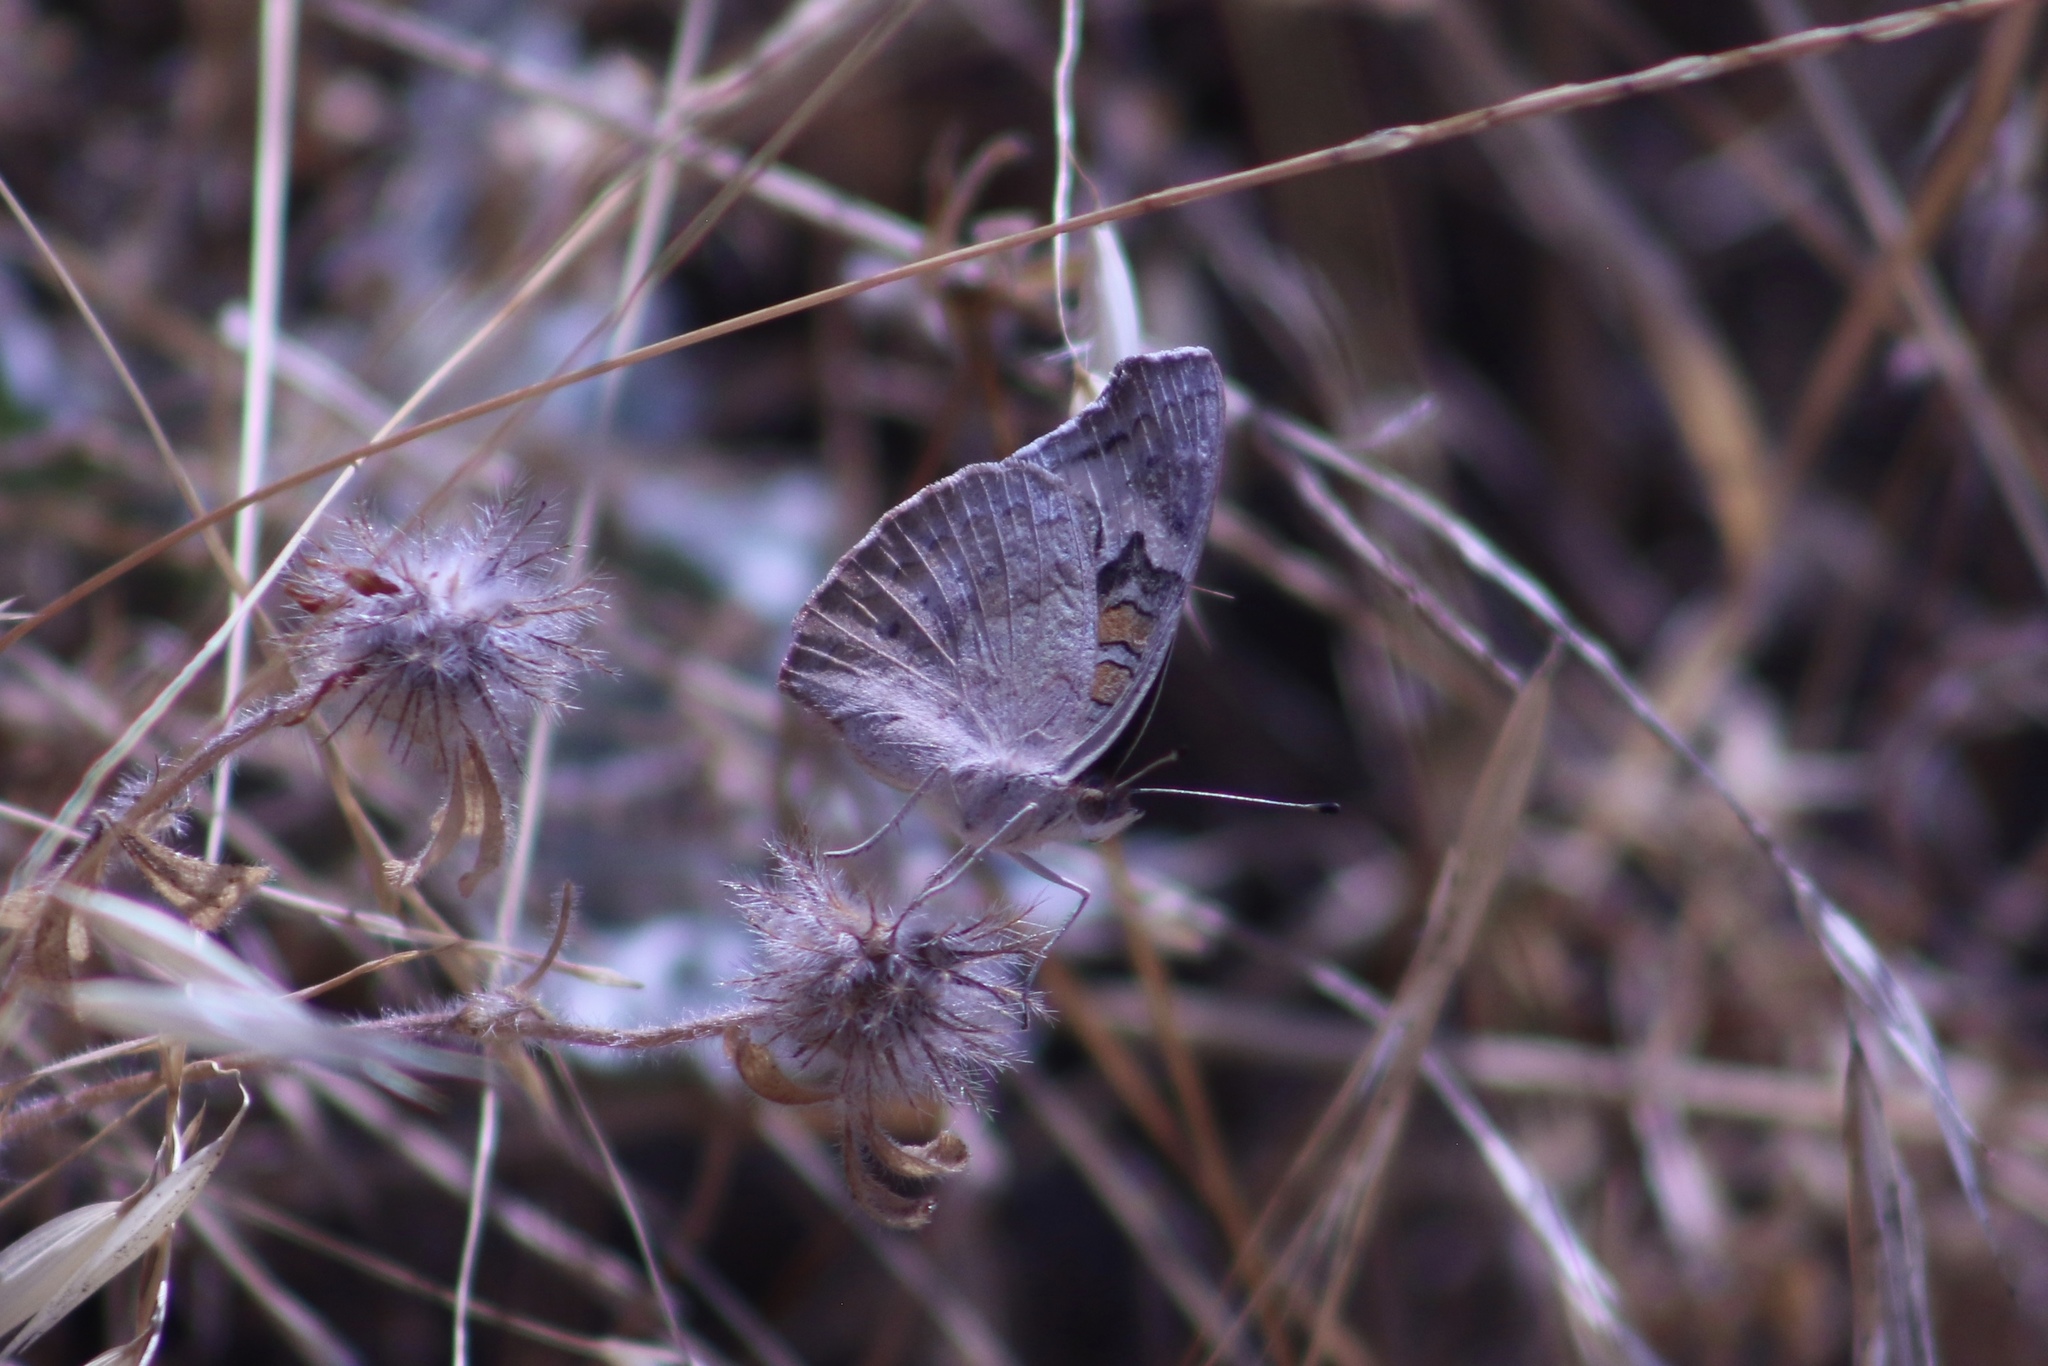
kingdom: Animalia
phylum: Arthropoda
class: Insecta
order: Lepidoptera
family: Nymphalidae
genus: Junonia
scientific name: Junonia grisea
